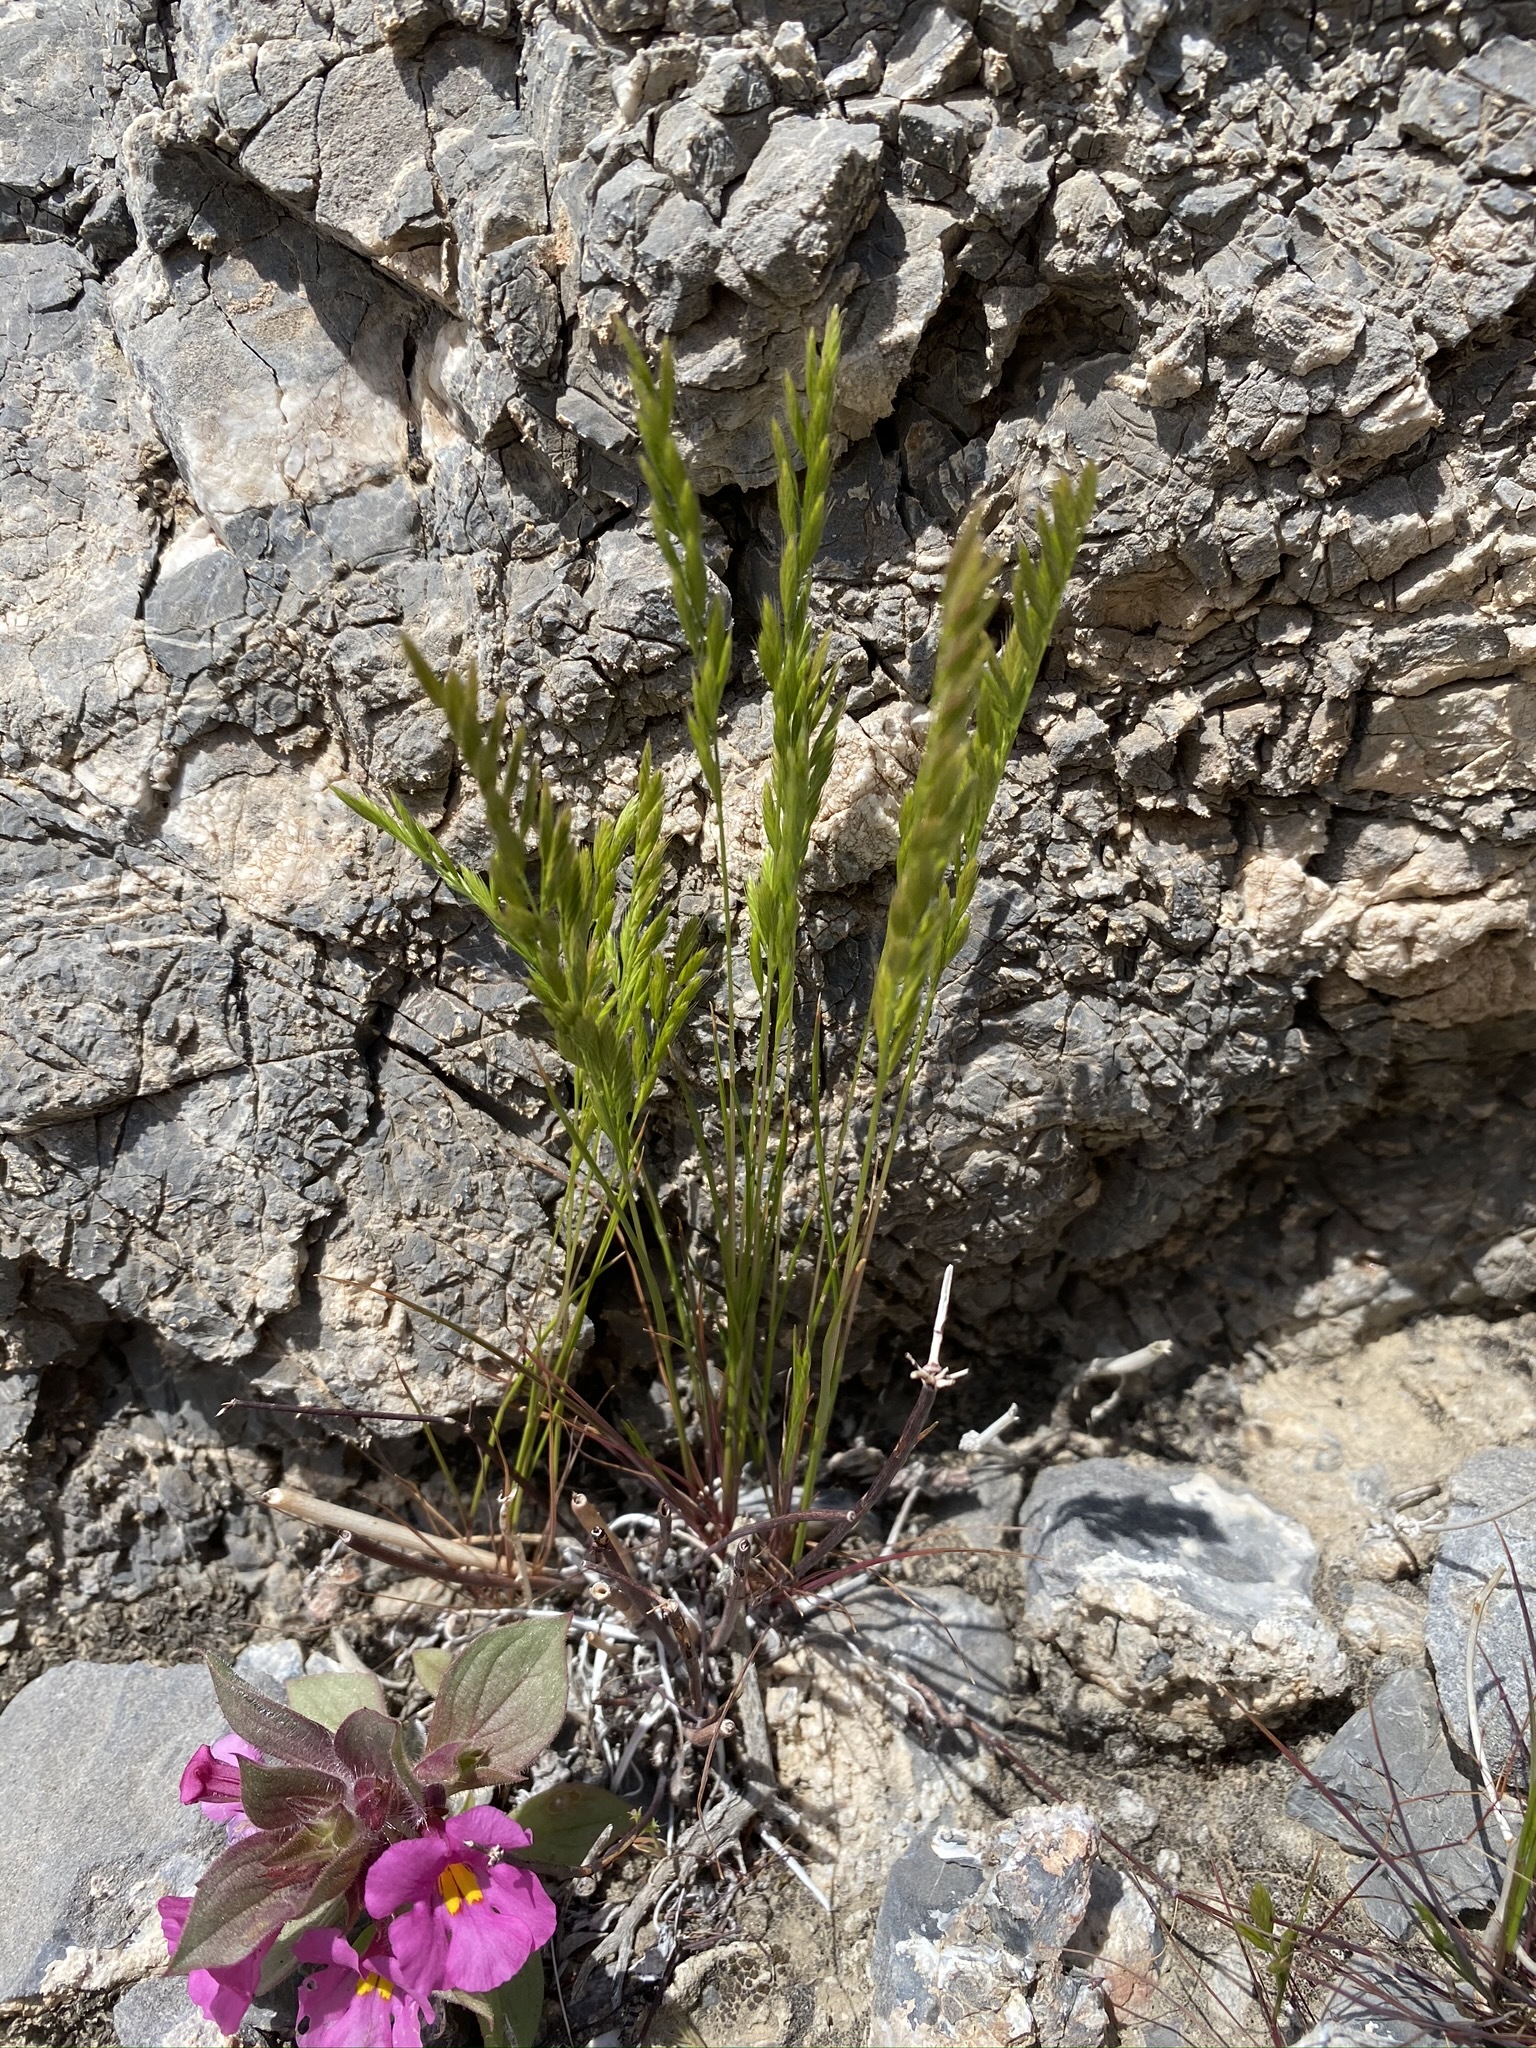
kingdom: Plantae
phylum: Tracheophyta
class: Liliopsida
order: Poales
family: Poaceae
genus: Festuca
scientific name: Festuca octoflora
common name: Sixweeks grass
